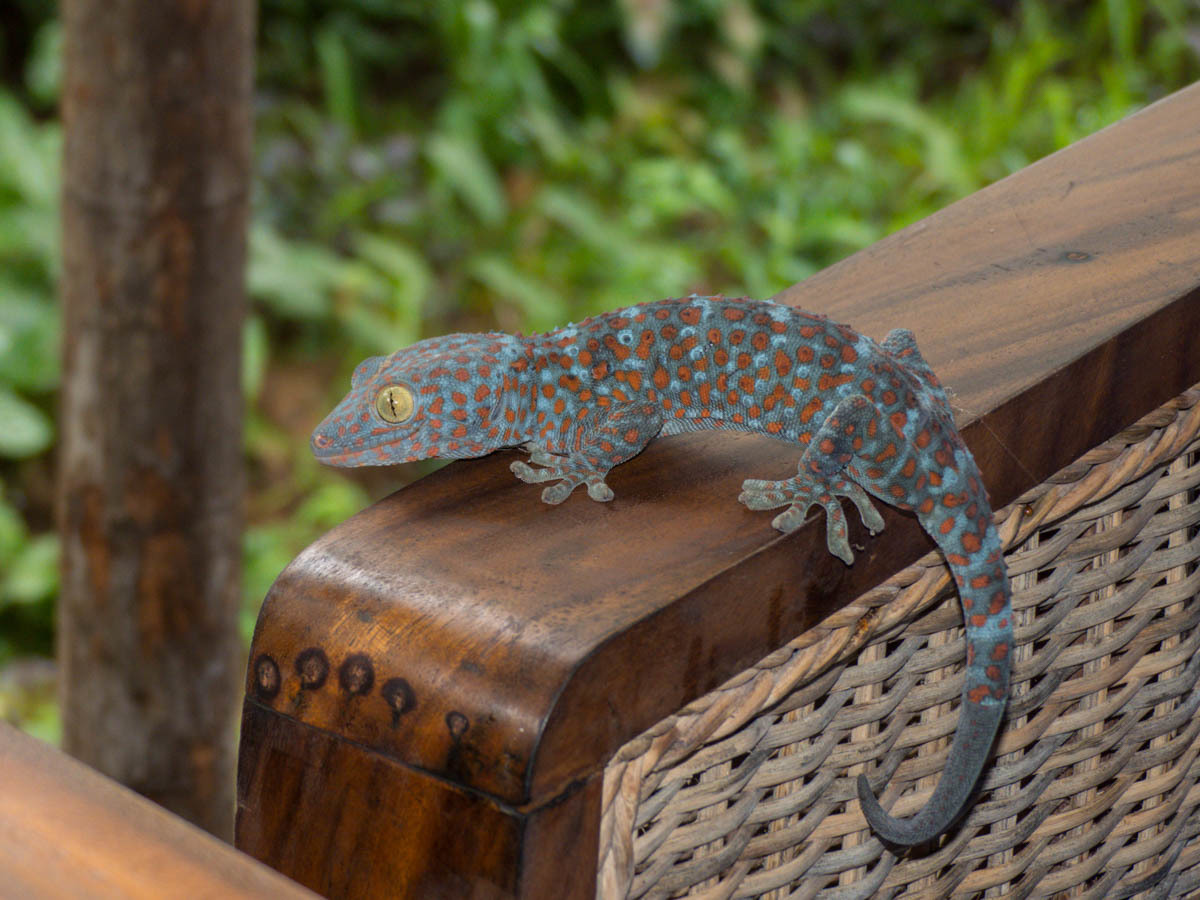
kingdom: Animalia
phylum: Chordata
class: Squamata
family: Gekkonidae
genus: Gekko
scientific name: Gekko gecko
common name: Tokay gecko
